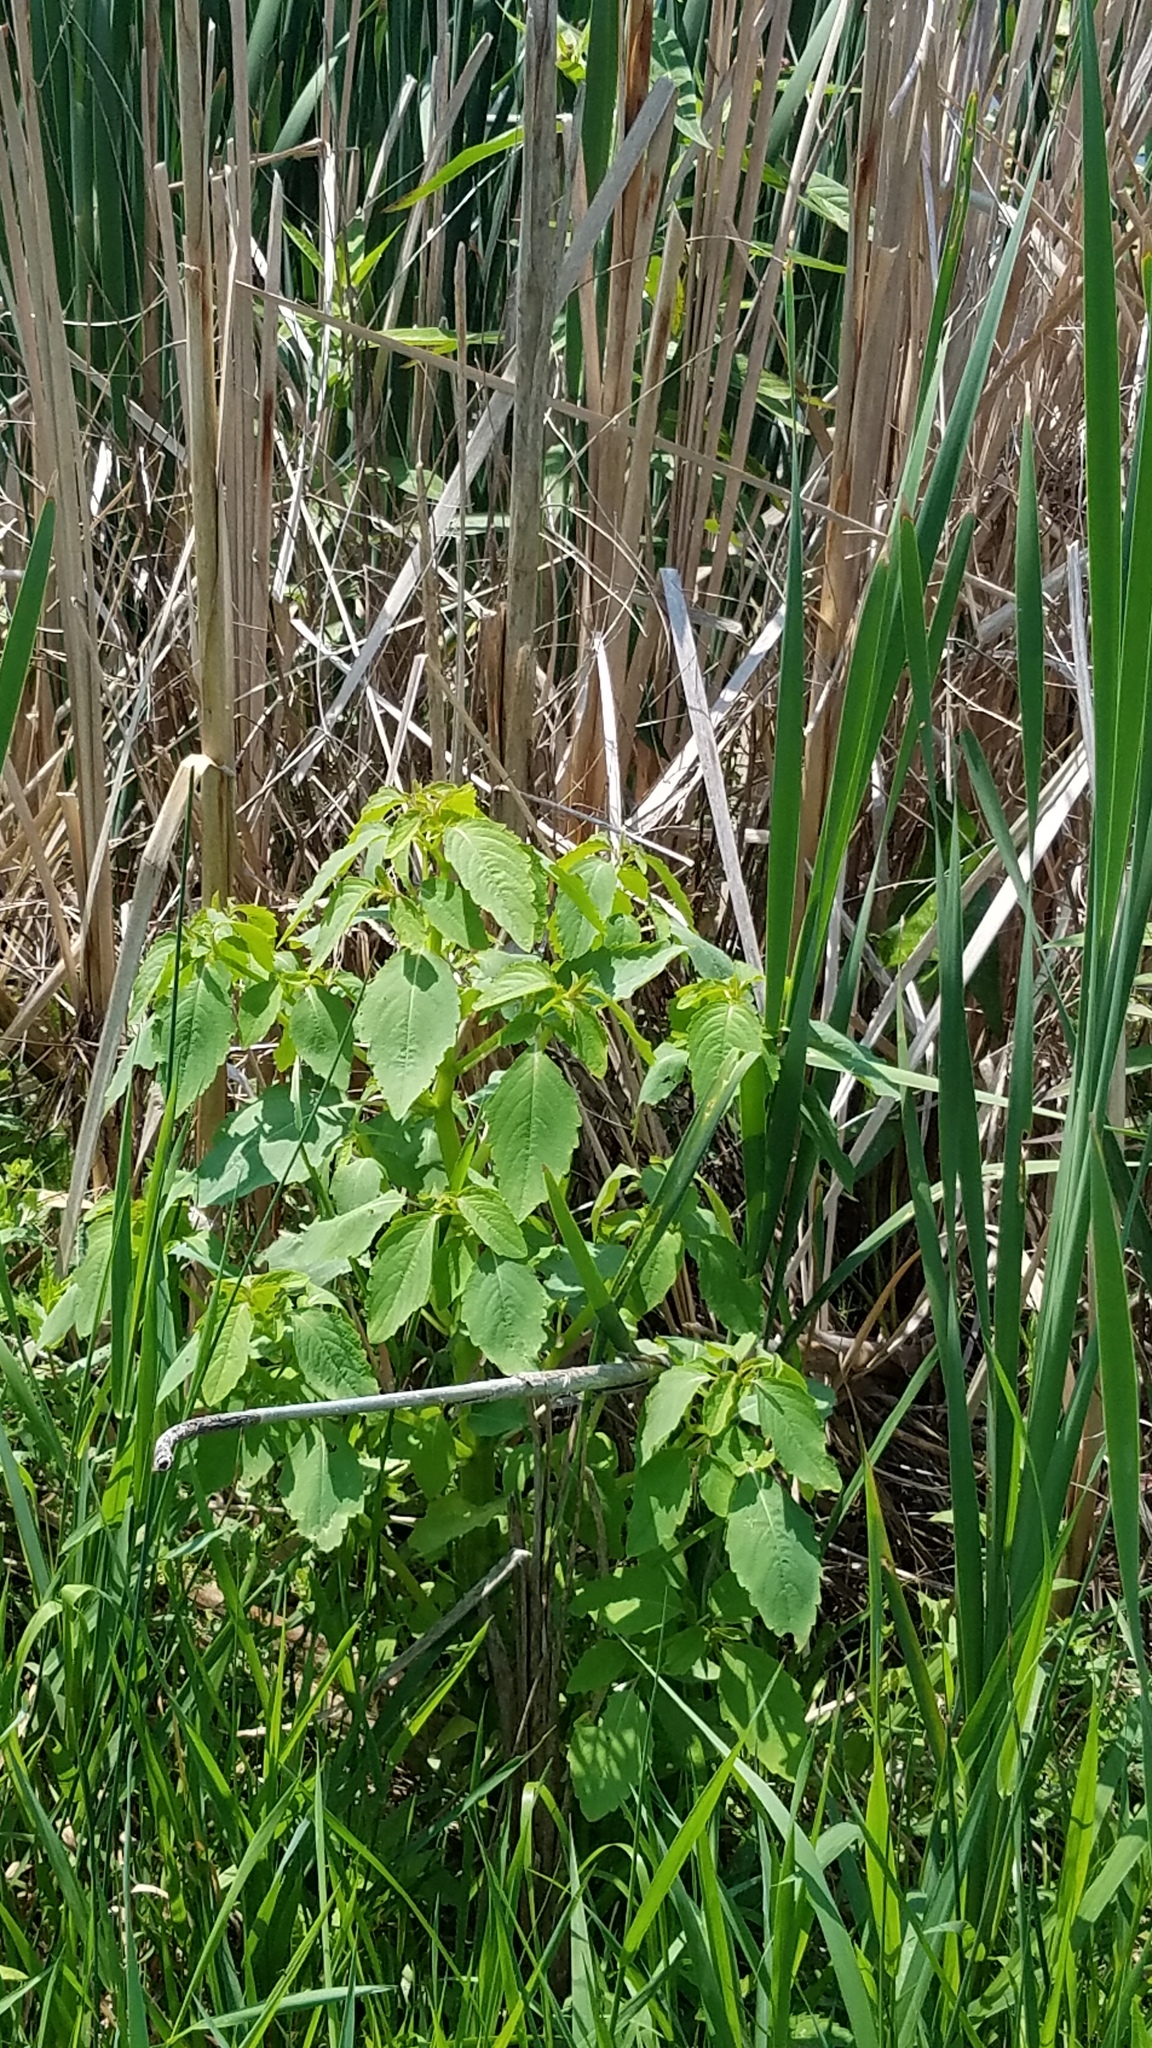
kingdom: Plantae
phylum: Tracheophyta
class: Magnoliopsida
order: Ericales
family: Balsaminaceae
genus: Impatiens
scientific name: Impatiens capensis
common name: Orange balsam
